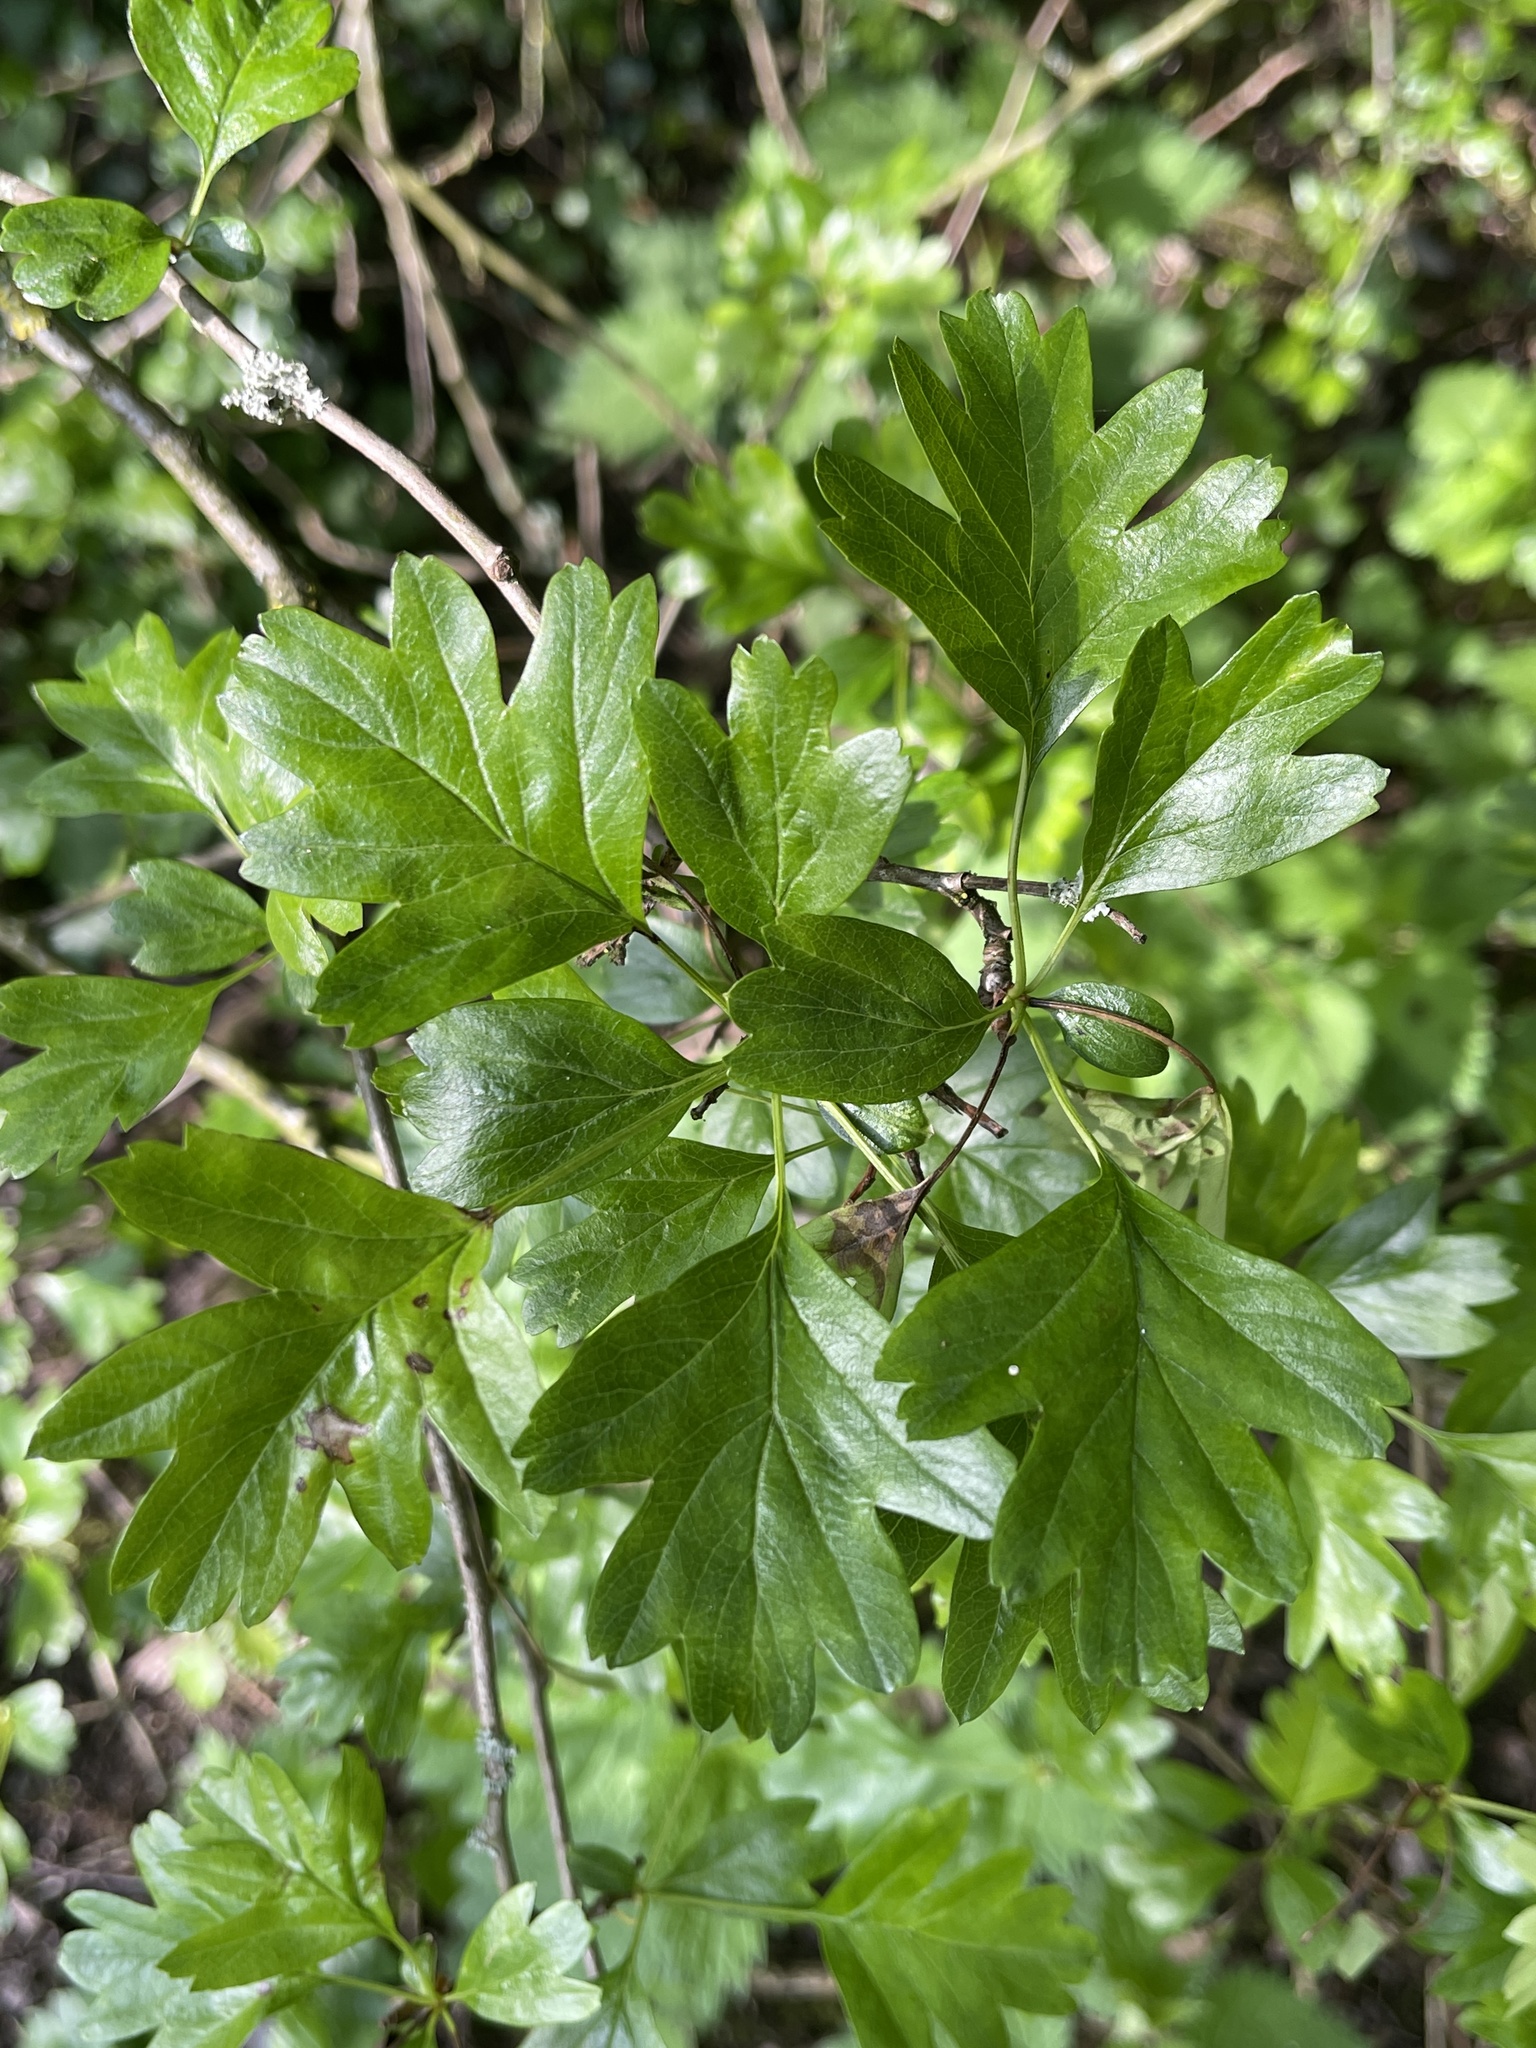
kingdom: Plantae
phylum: Tracheophyta
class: Magnoliopsida
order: Rosales
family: Rosaceae
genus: Crataegus
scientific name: Crataegus monogyna
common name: Hawthorn
